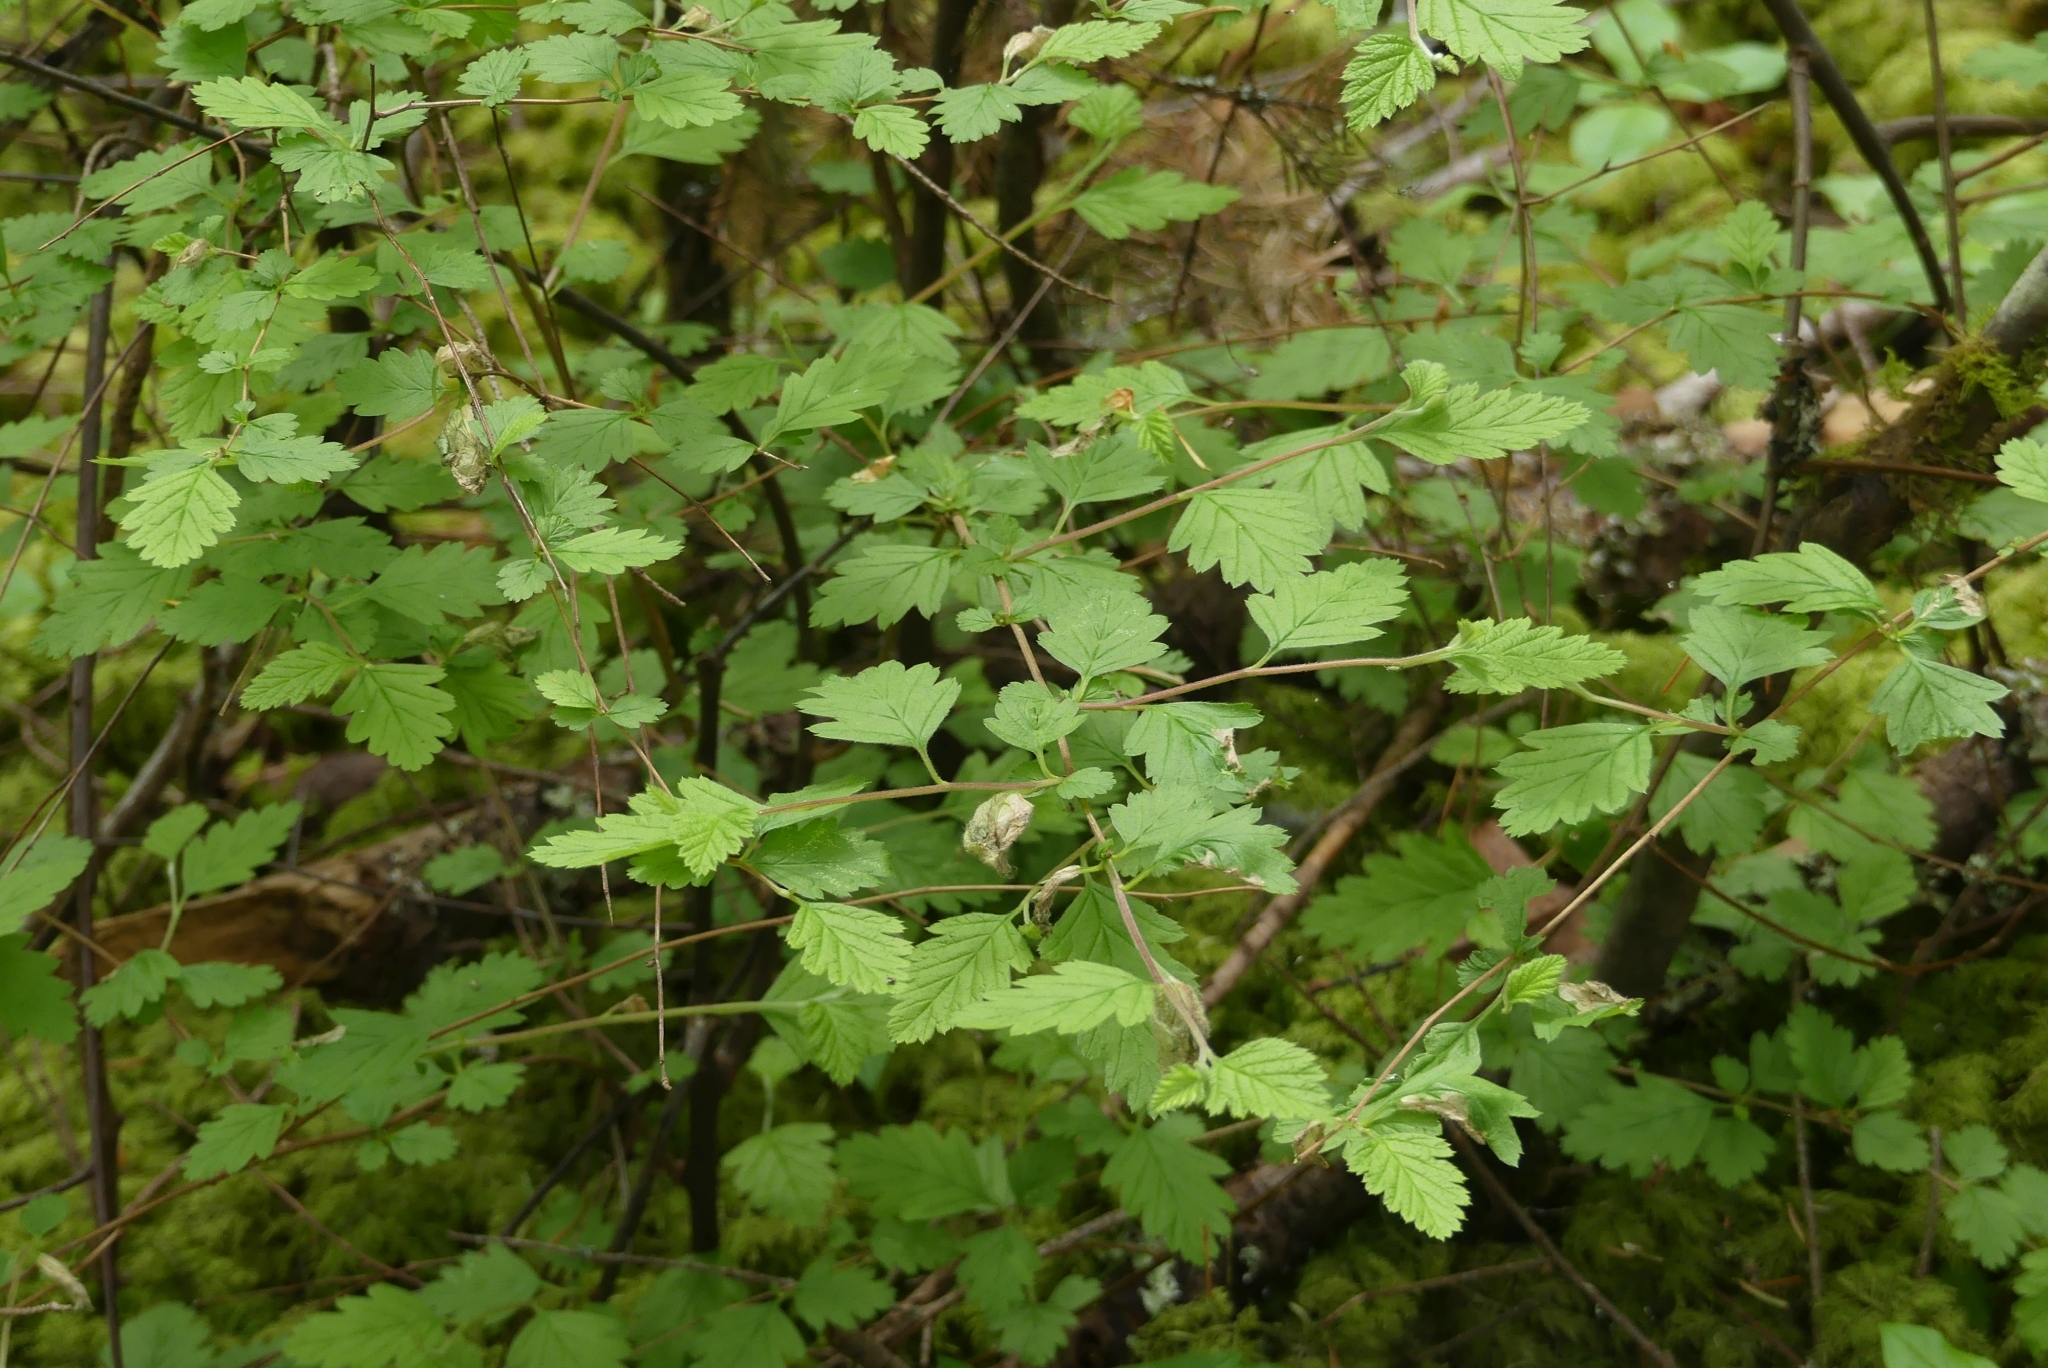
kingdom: Plantae
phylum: Tracheophyta
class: Magnoliopsida
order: Rosales
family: Rosaceae
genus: Holodiscus
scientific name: Holodiscus discolor
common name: Oceanspray
